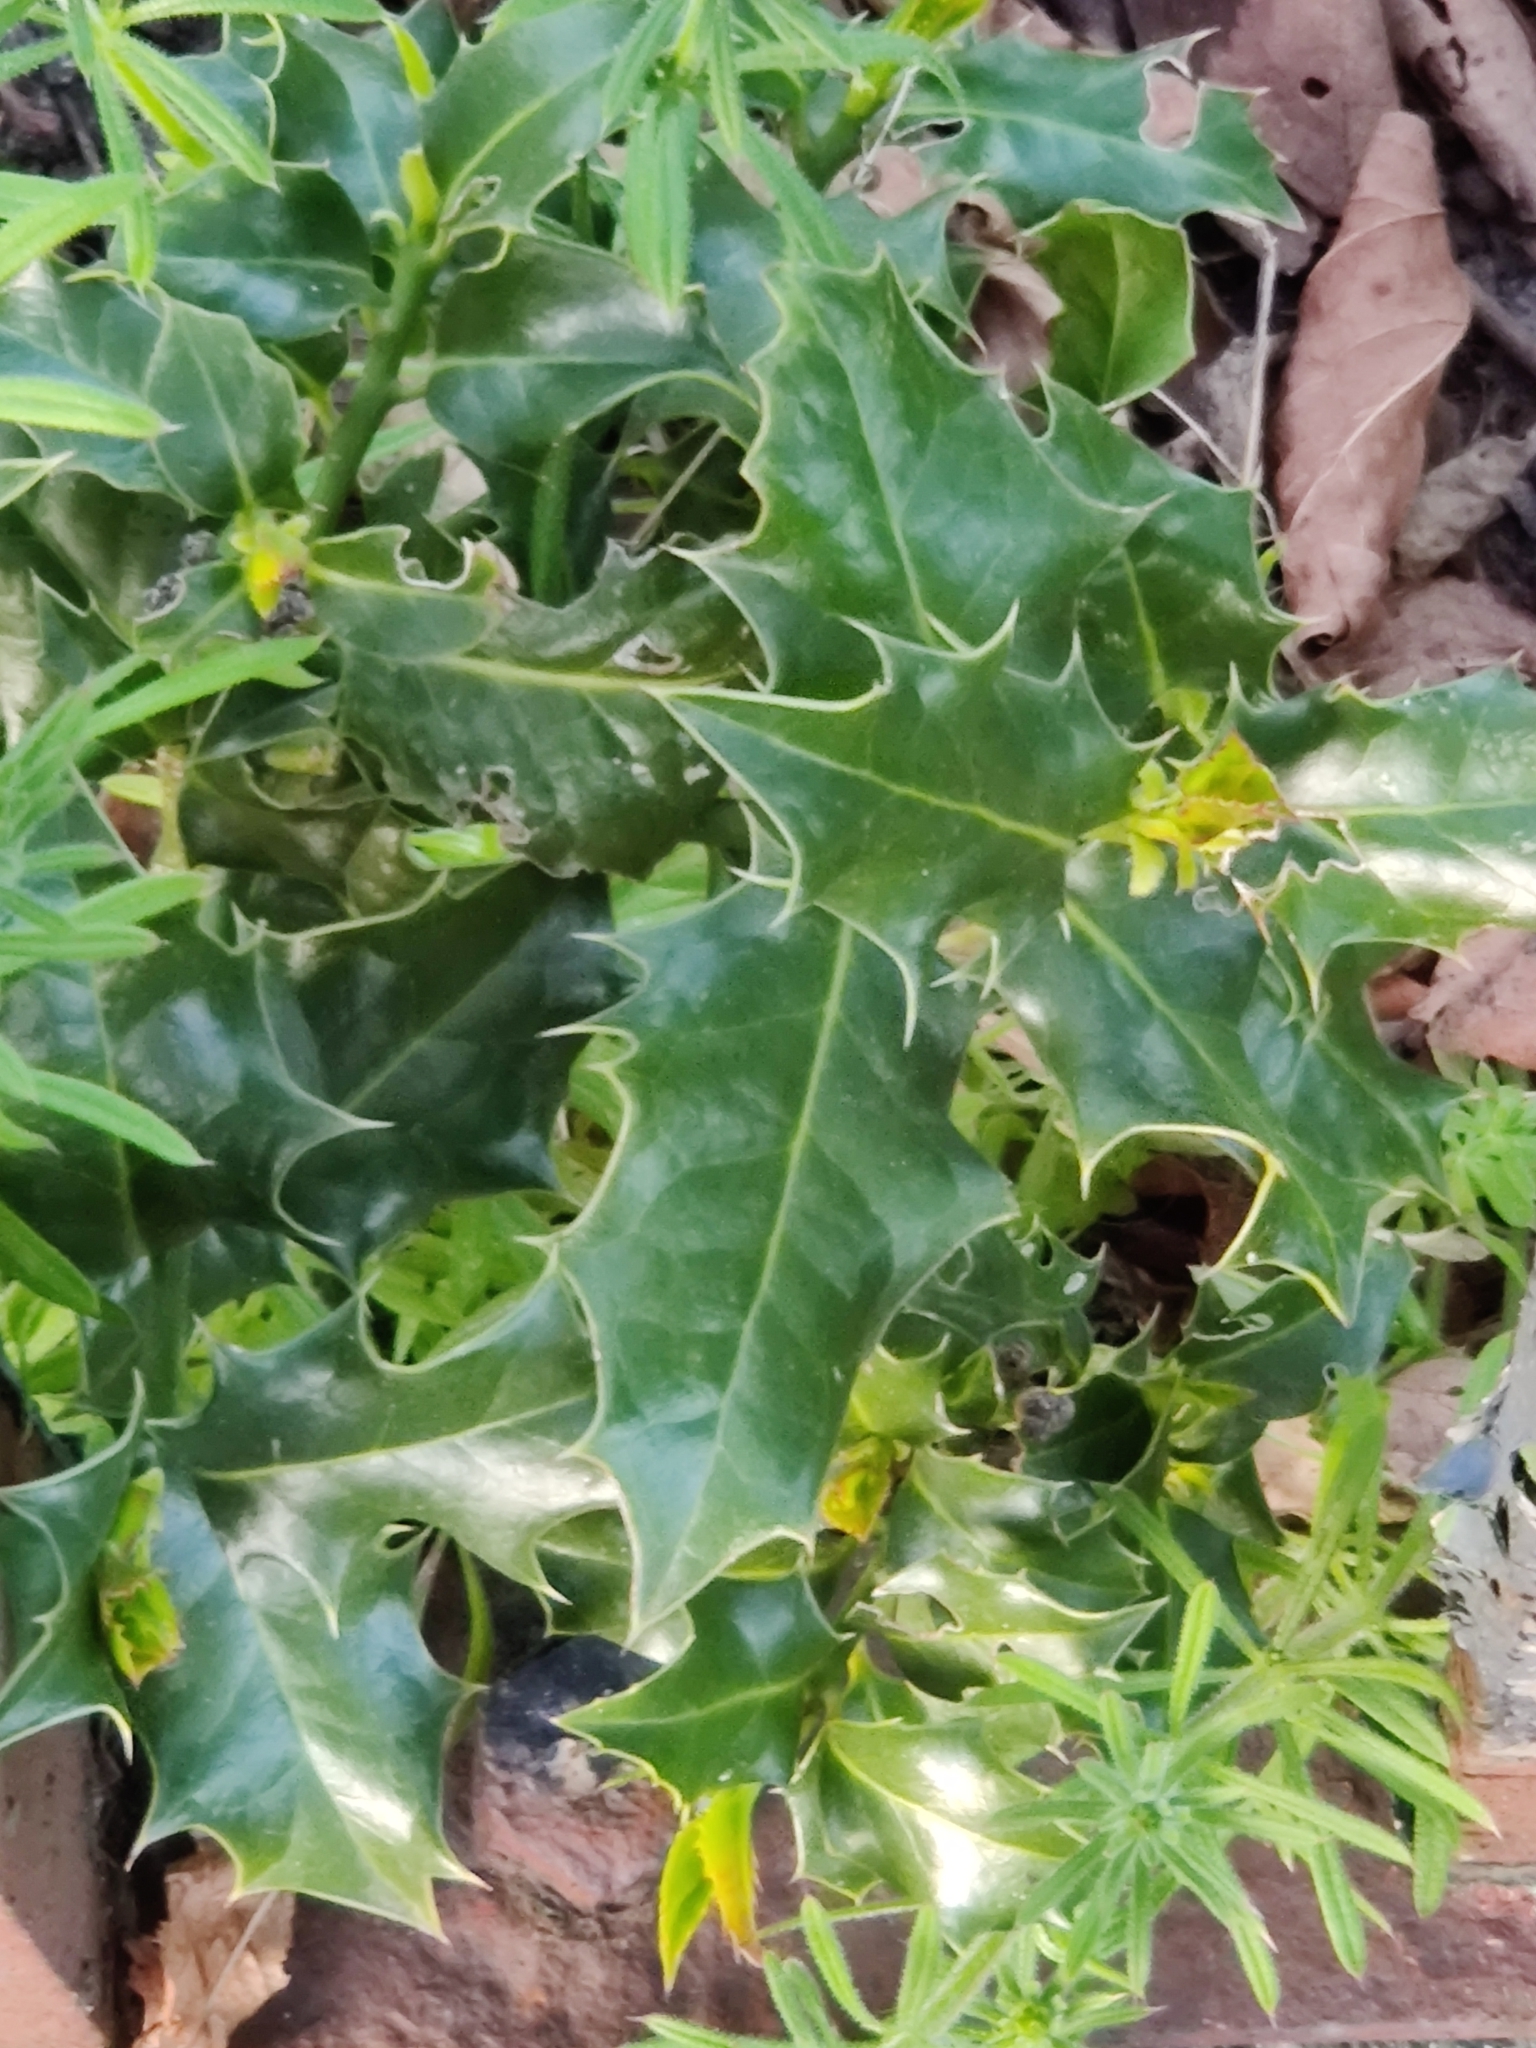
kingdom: Plantae
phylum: Tracheophyta
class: Magnoliopsida
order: Aquifoliales
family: Aquifoliaceae
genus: Ilex
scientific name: Ilex aquifolium
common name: English holly
